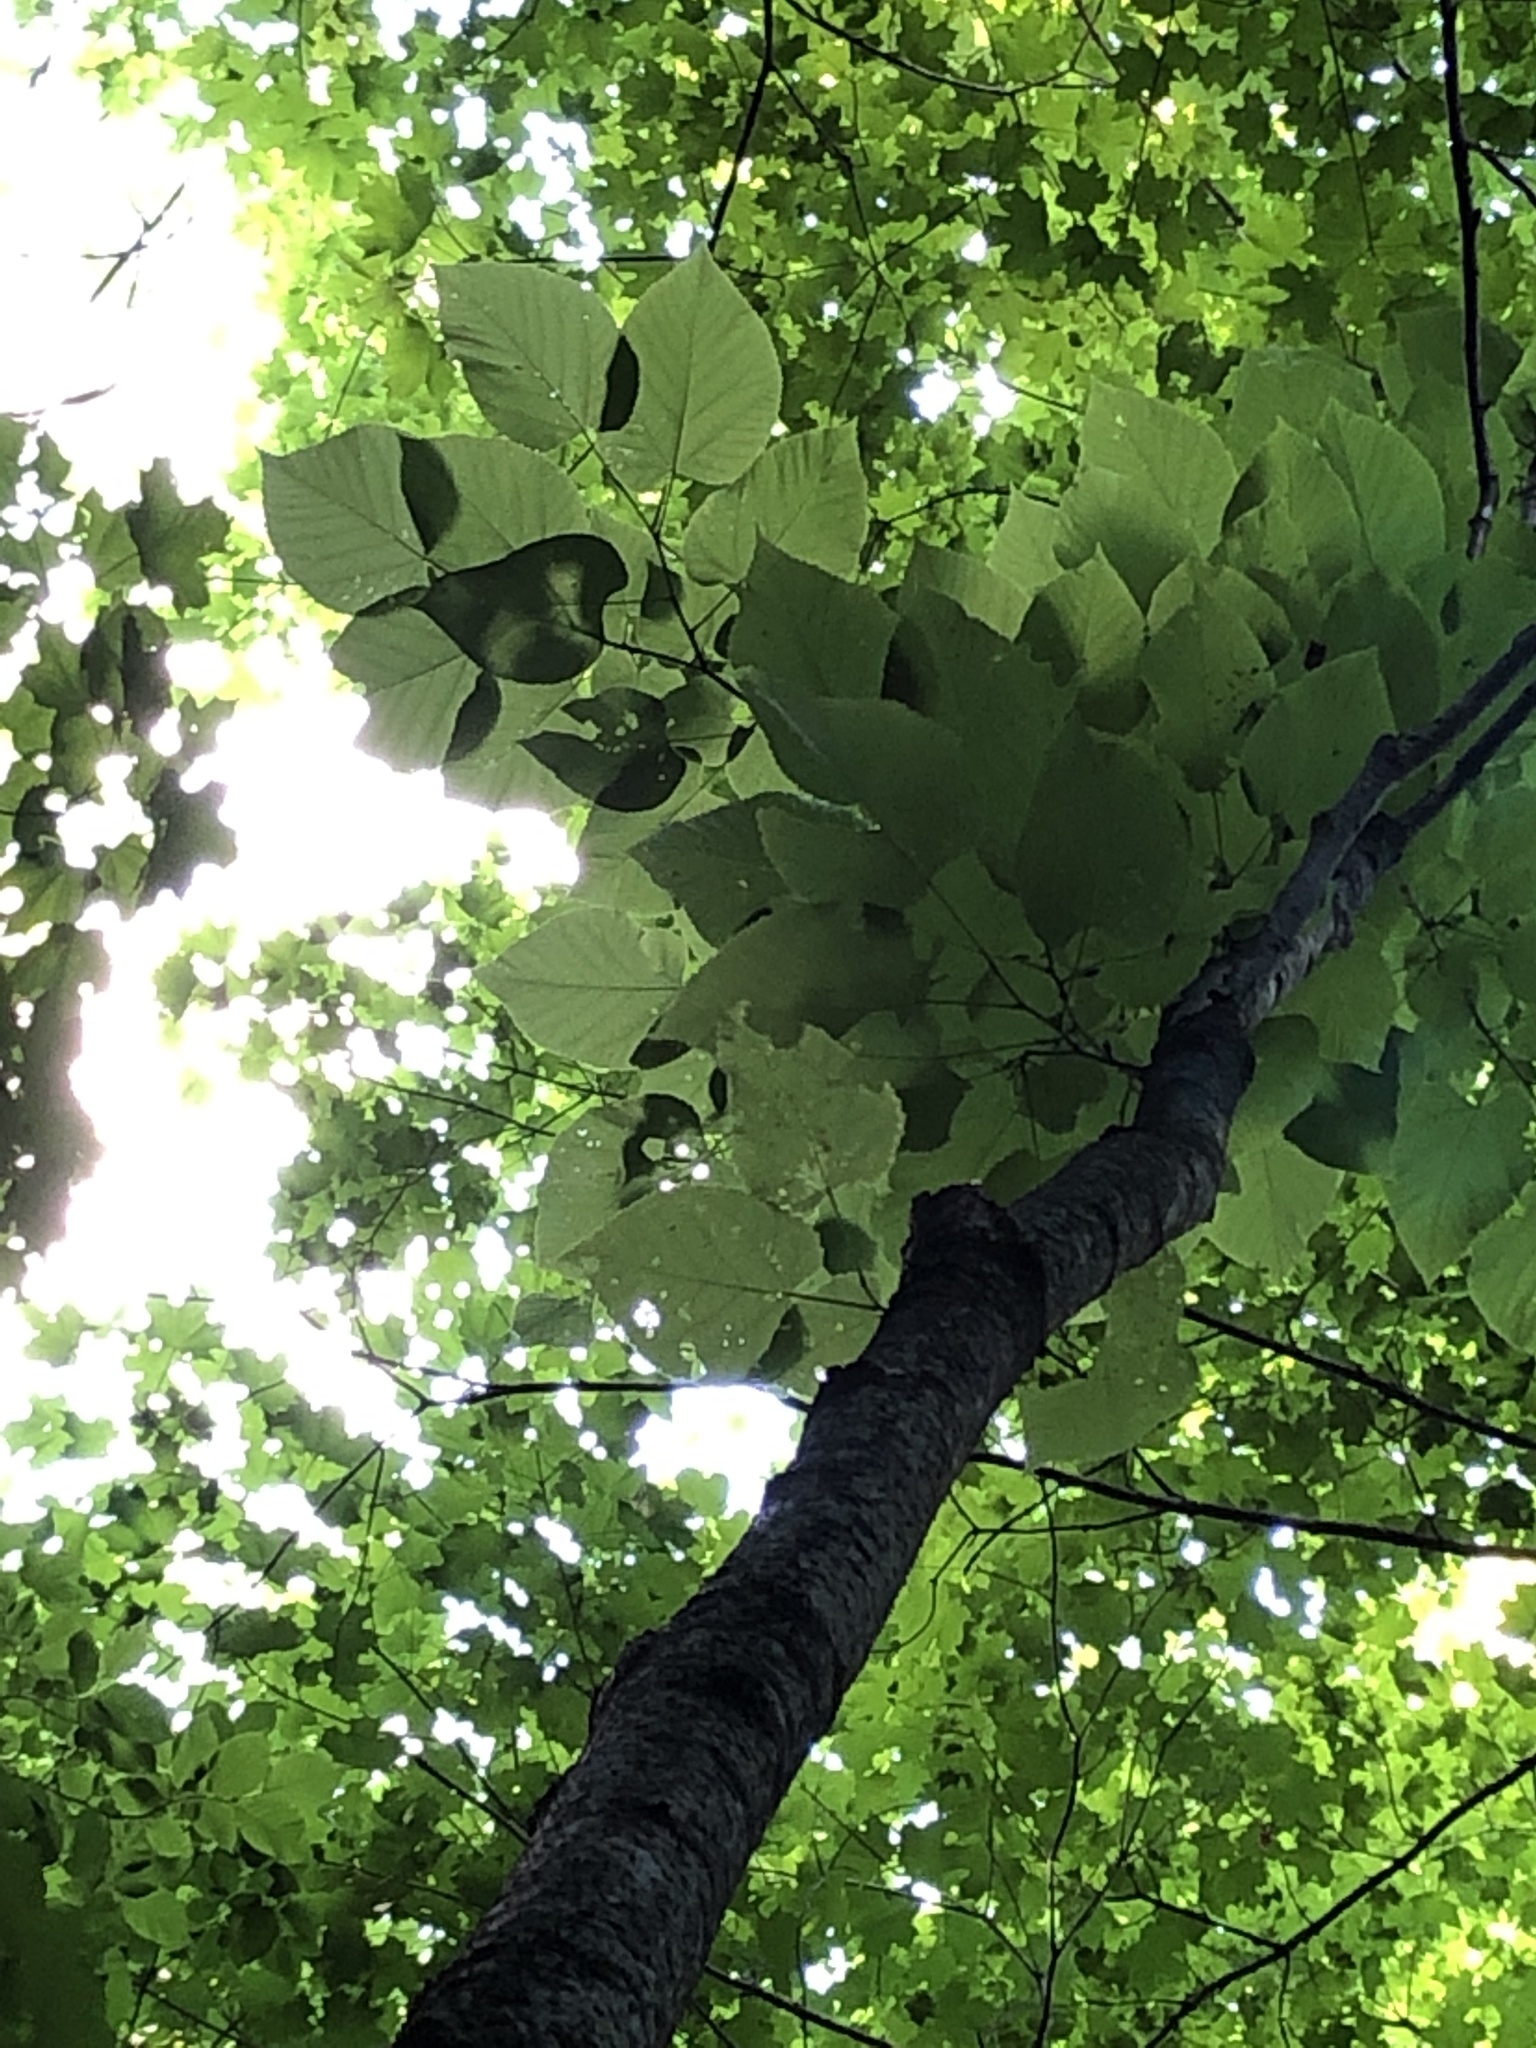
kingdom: Plantae
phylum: Tracheophyta
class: Magnoliopsida
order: Malvales
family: Malvaceae
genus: Tilia
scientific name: Tilia americana
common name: Basswood
